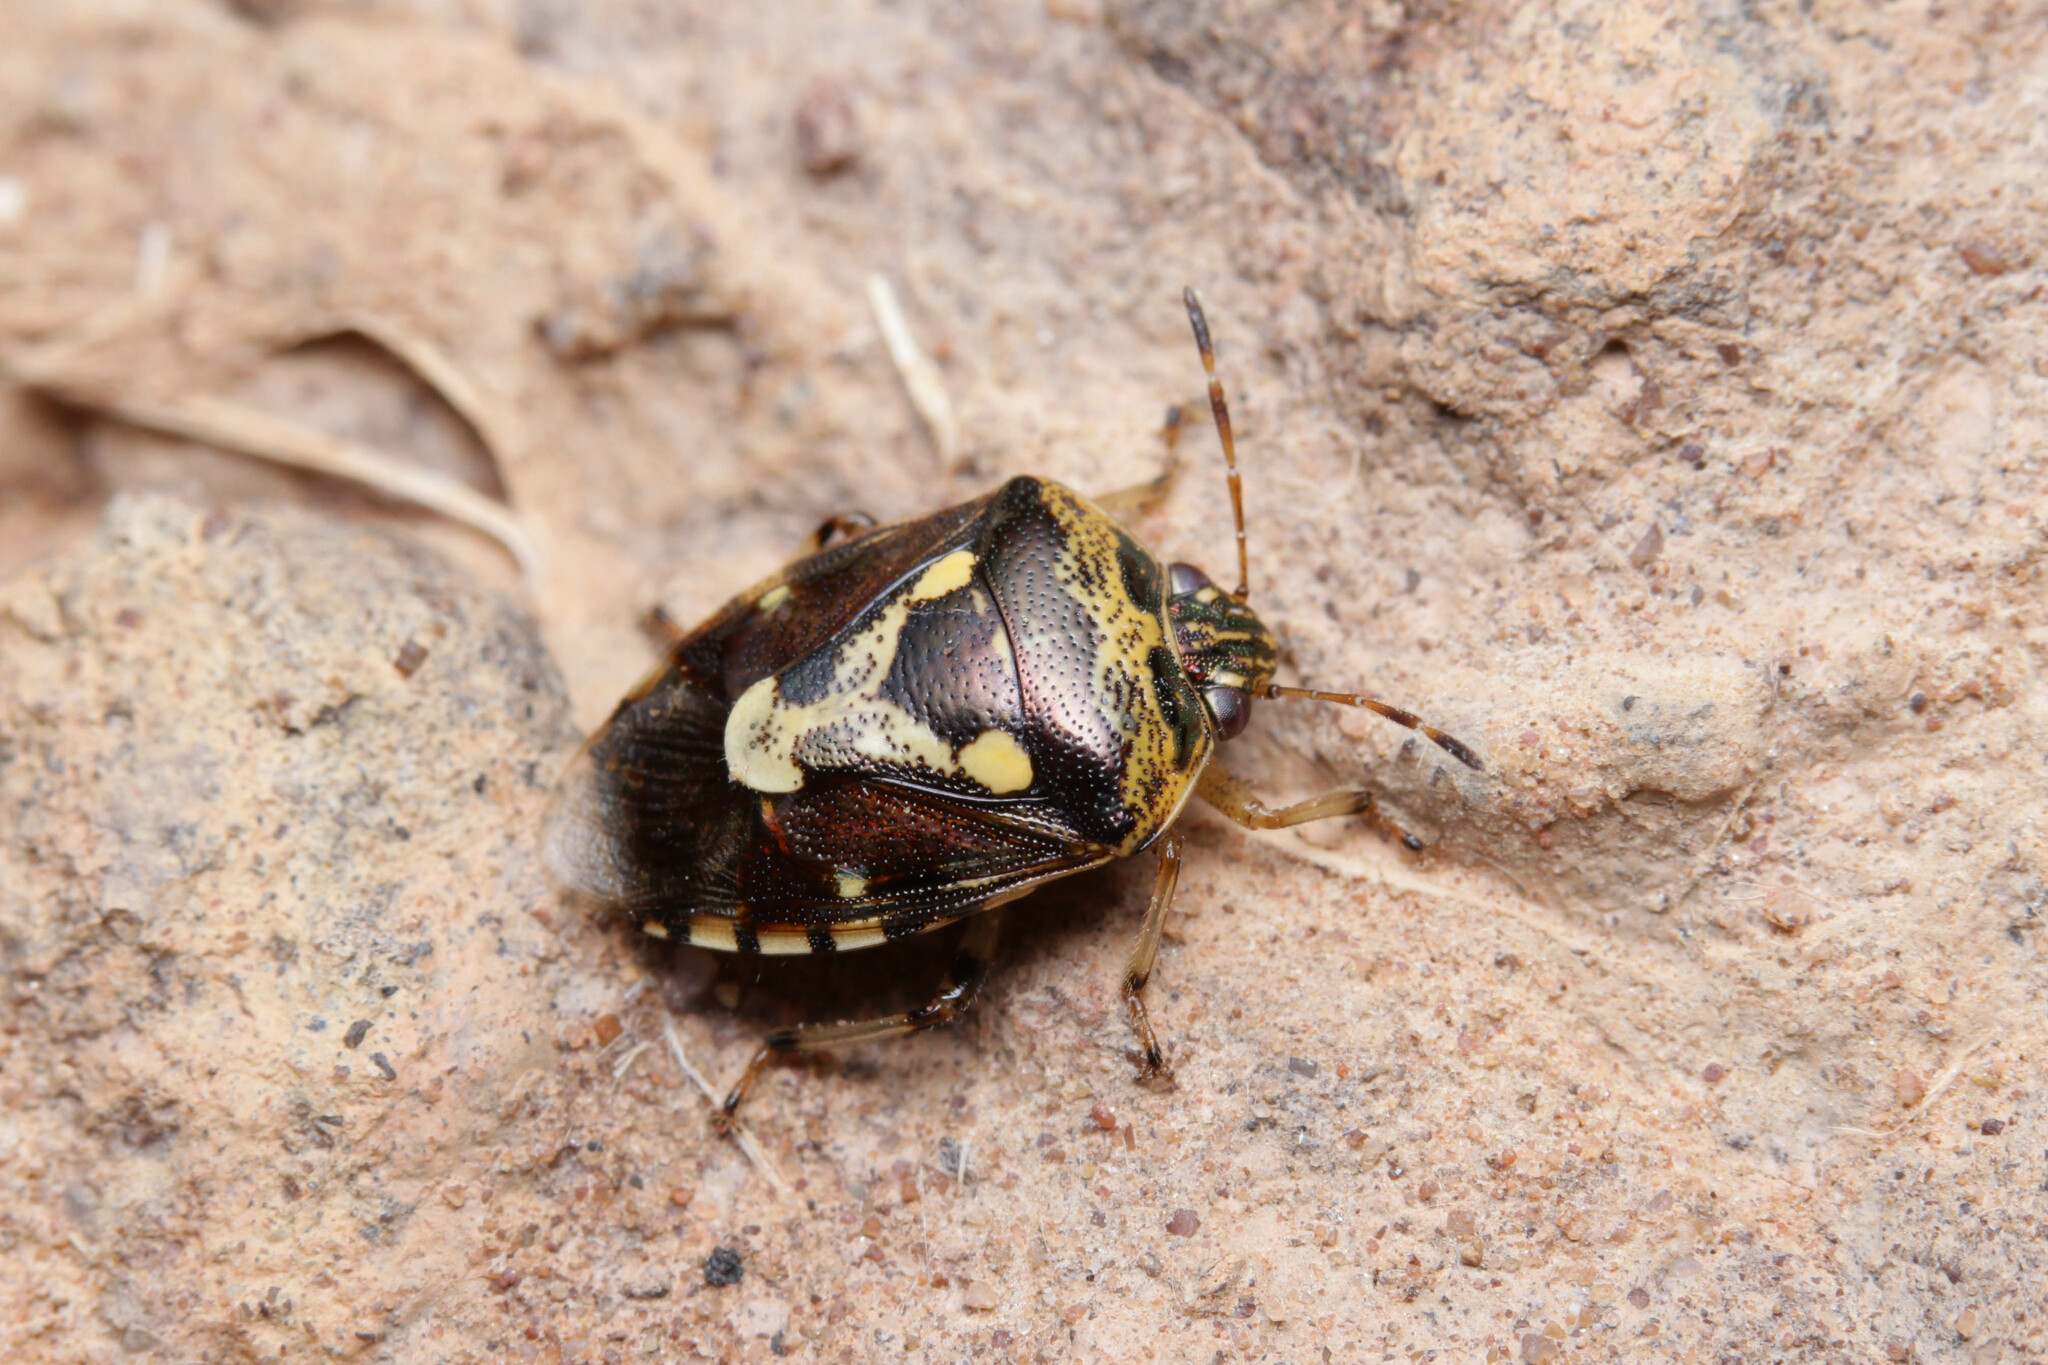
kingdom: Animalia
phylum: Arthropoda
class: Insecta
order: Hemiptera
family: Pentatomidae
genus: Menida
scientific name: Menida formosa
